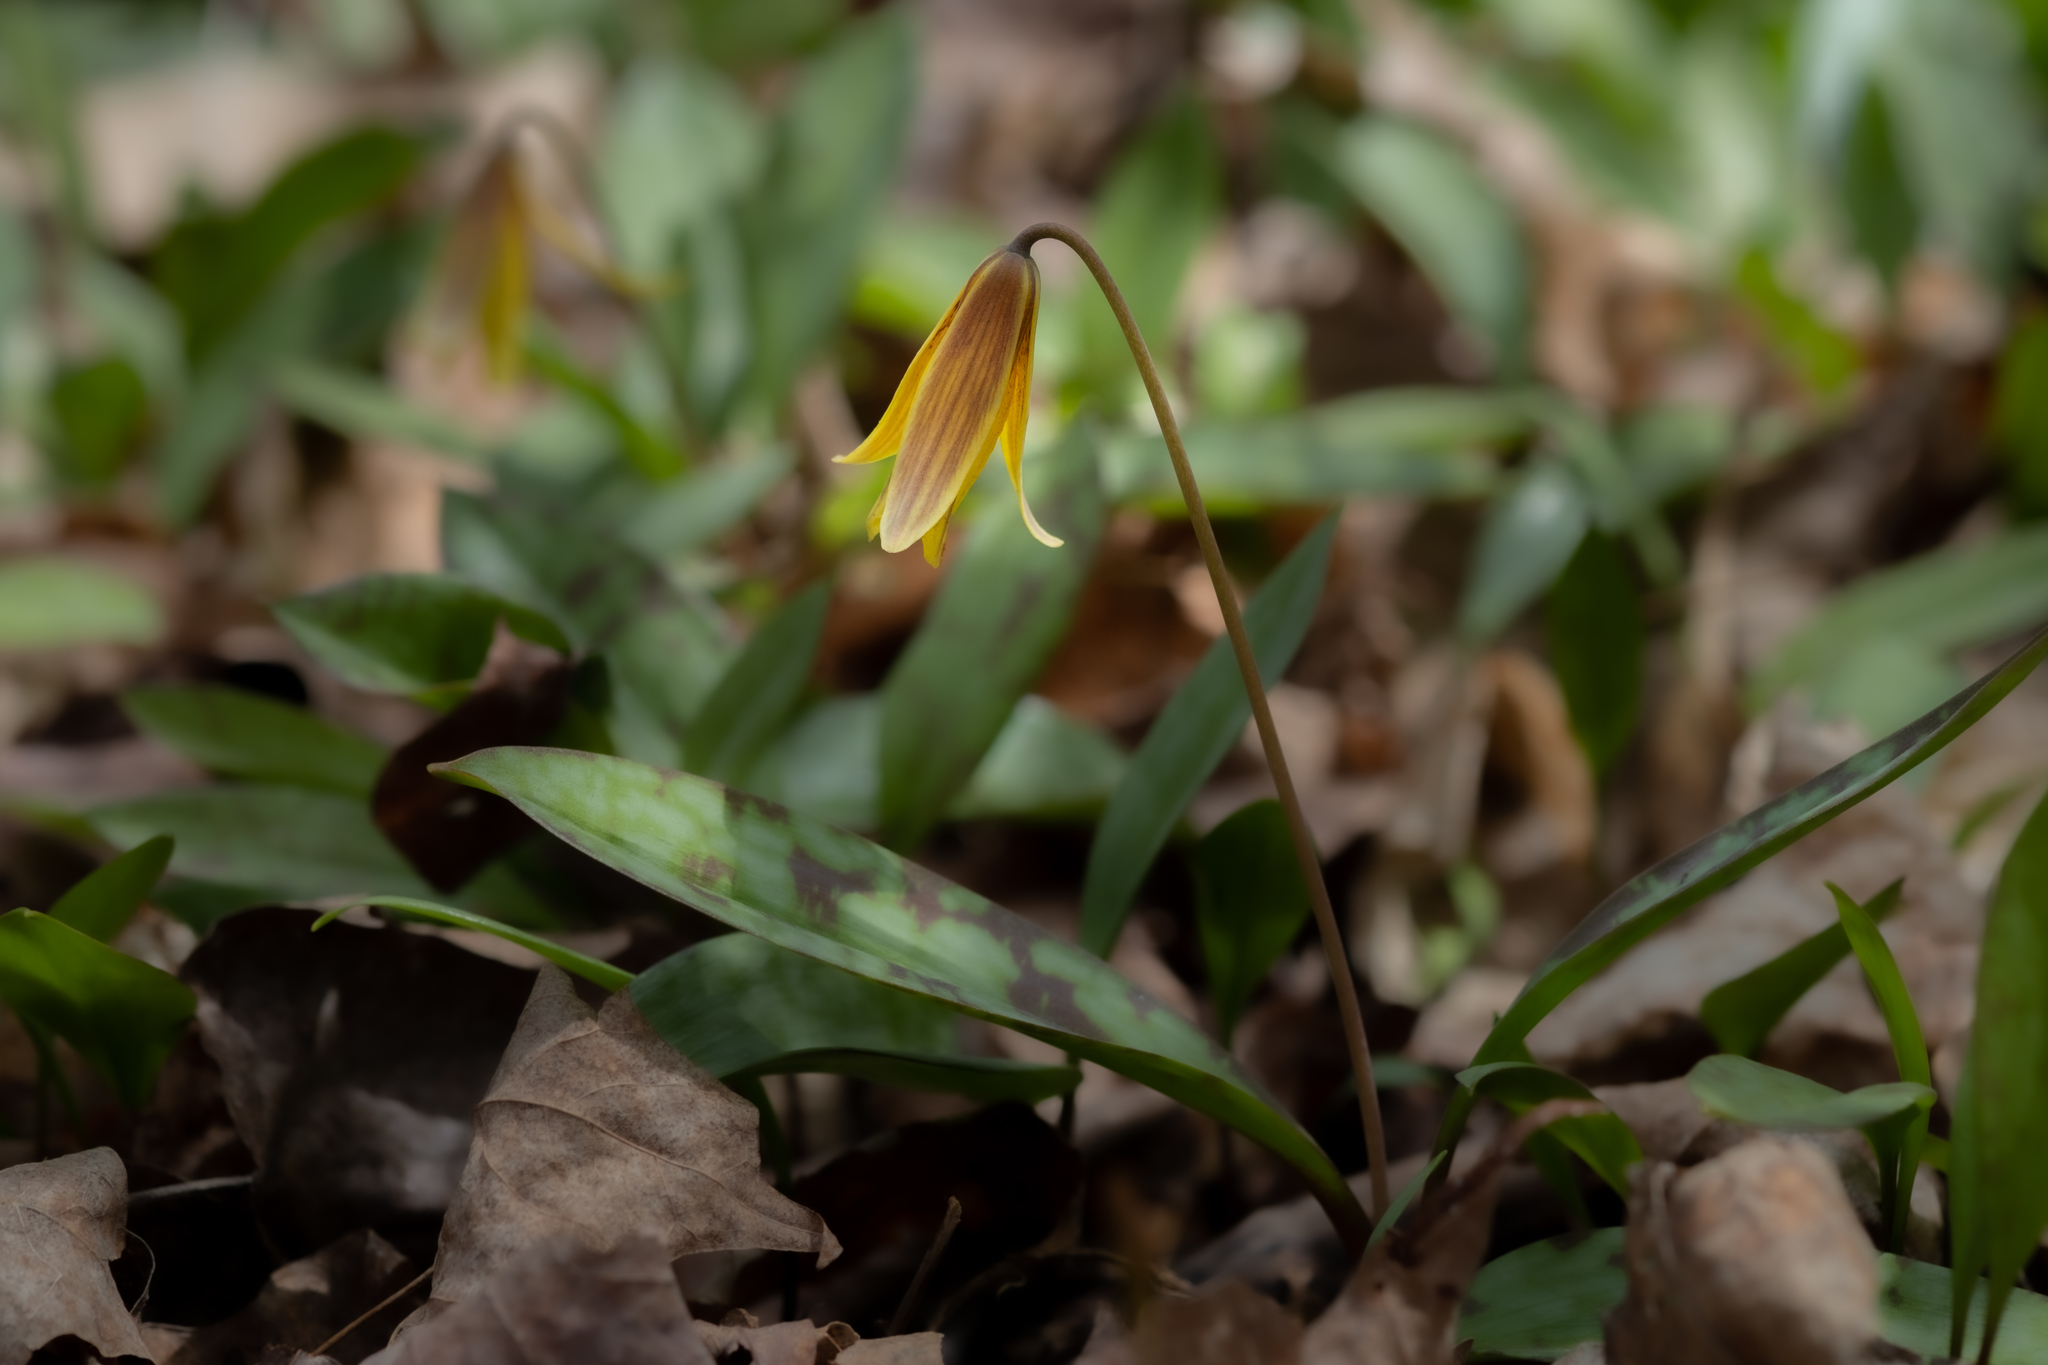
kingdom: Plantae
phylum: Tracheophyta
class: Liliopsida
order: Liliales
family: Liliaceae
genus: Erythronium
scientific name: Erythronium americanum
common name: Yellow adder's-tongue
